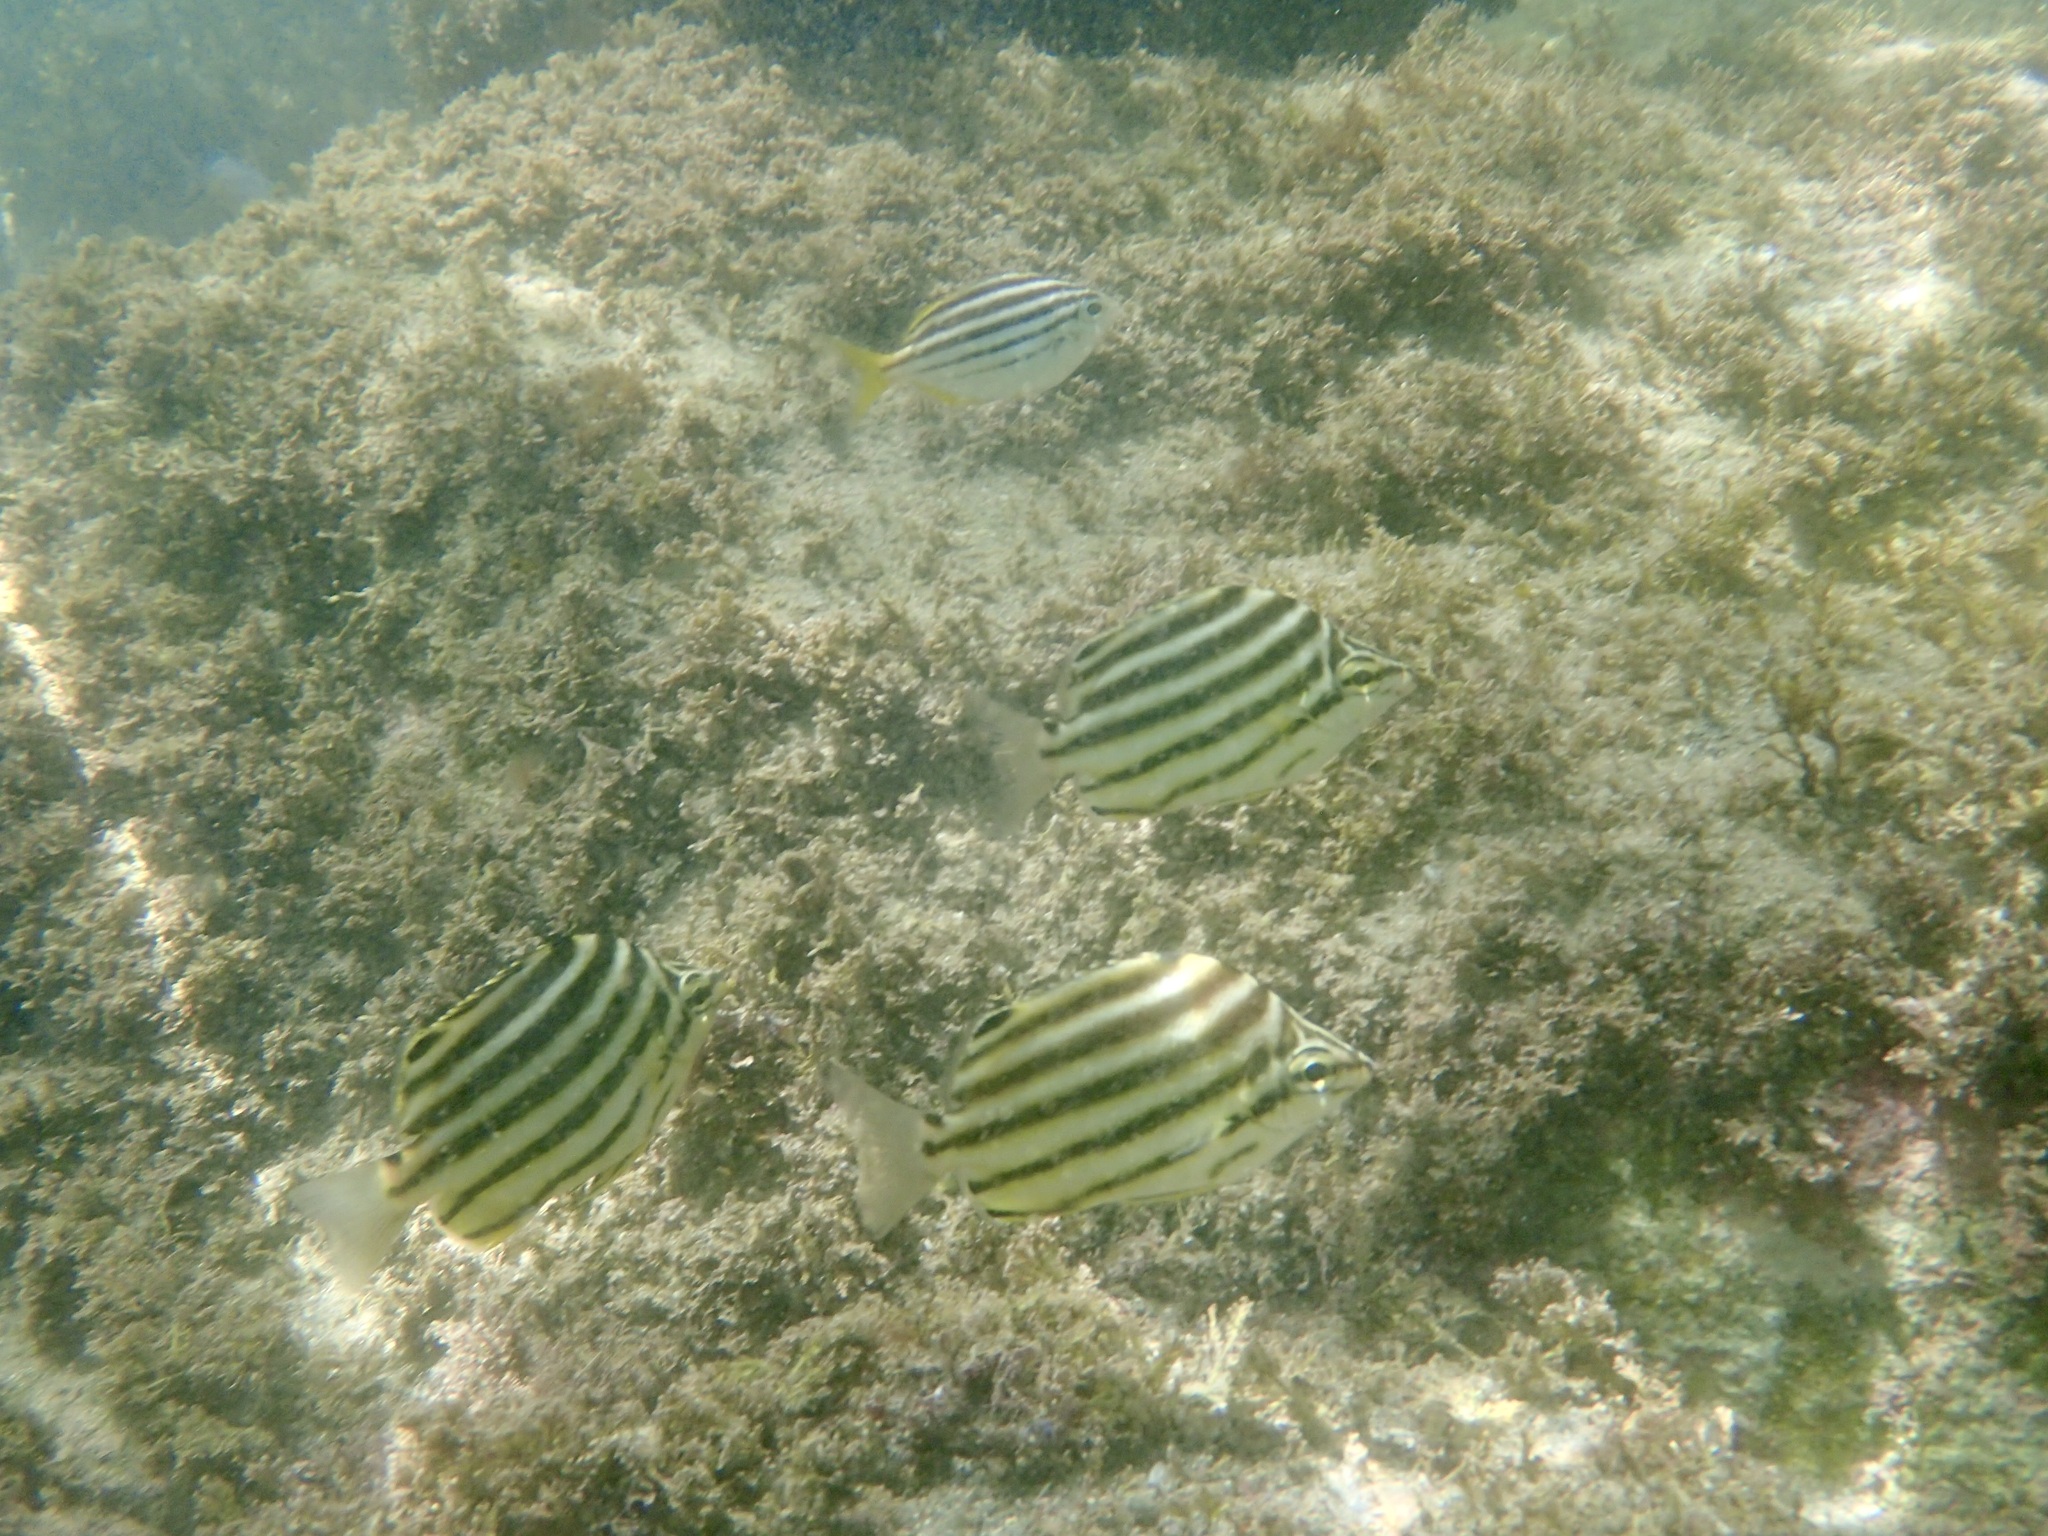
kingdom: Animalia
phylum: Chordata
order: Perciformes
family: Kyphosidae
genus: Microcanthus
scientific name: Microcanthus joyceae
